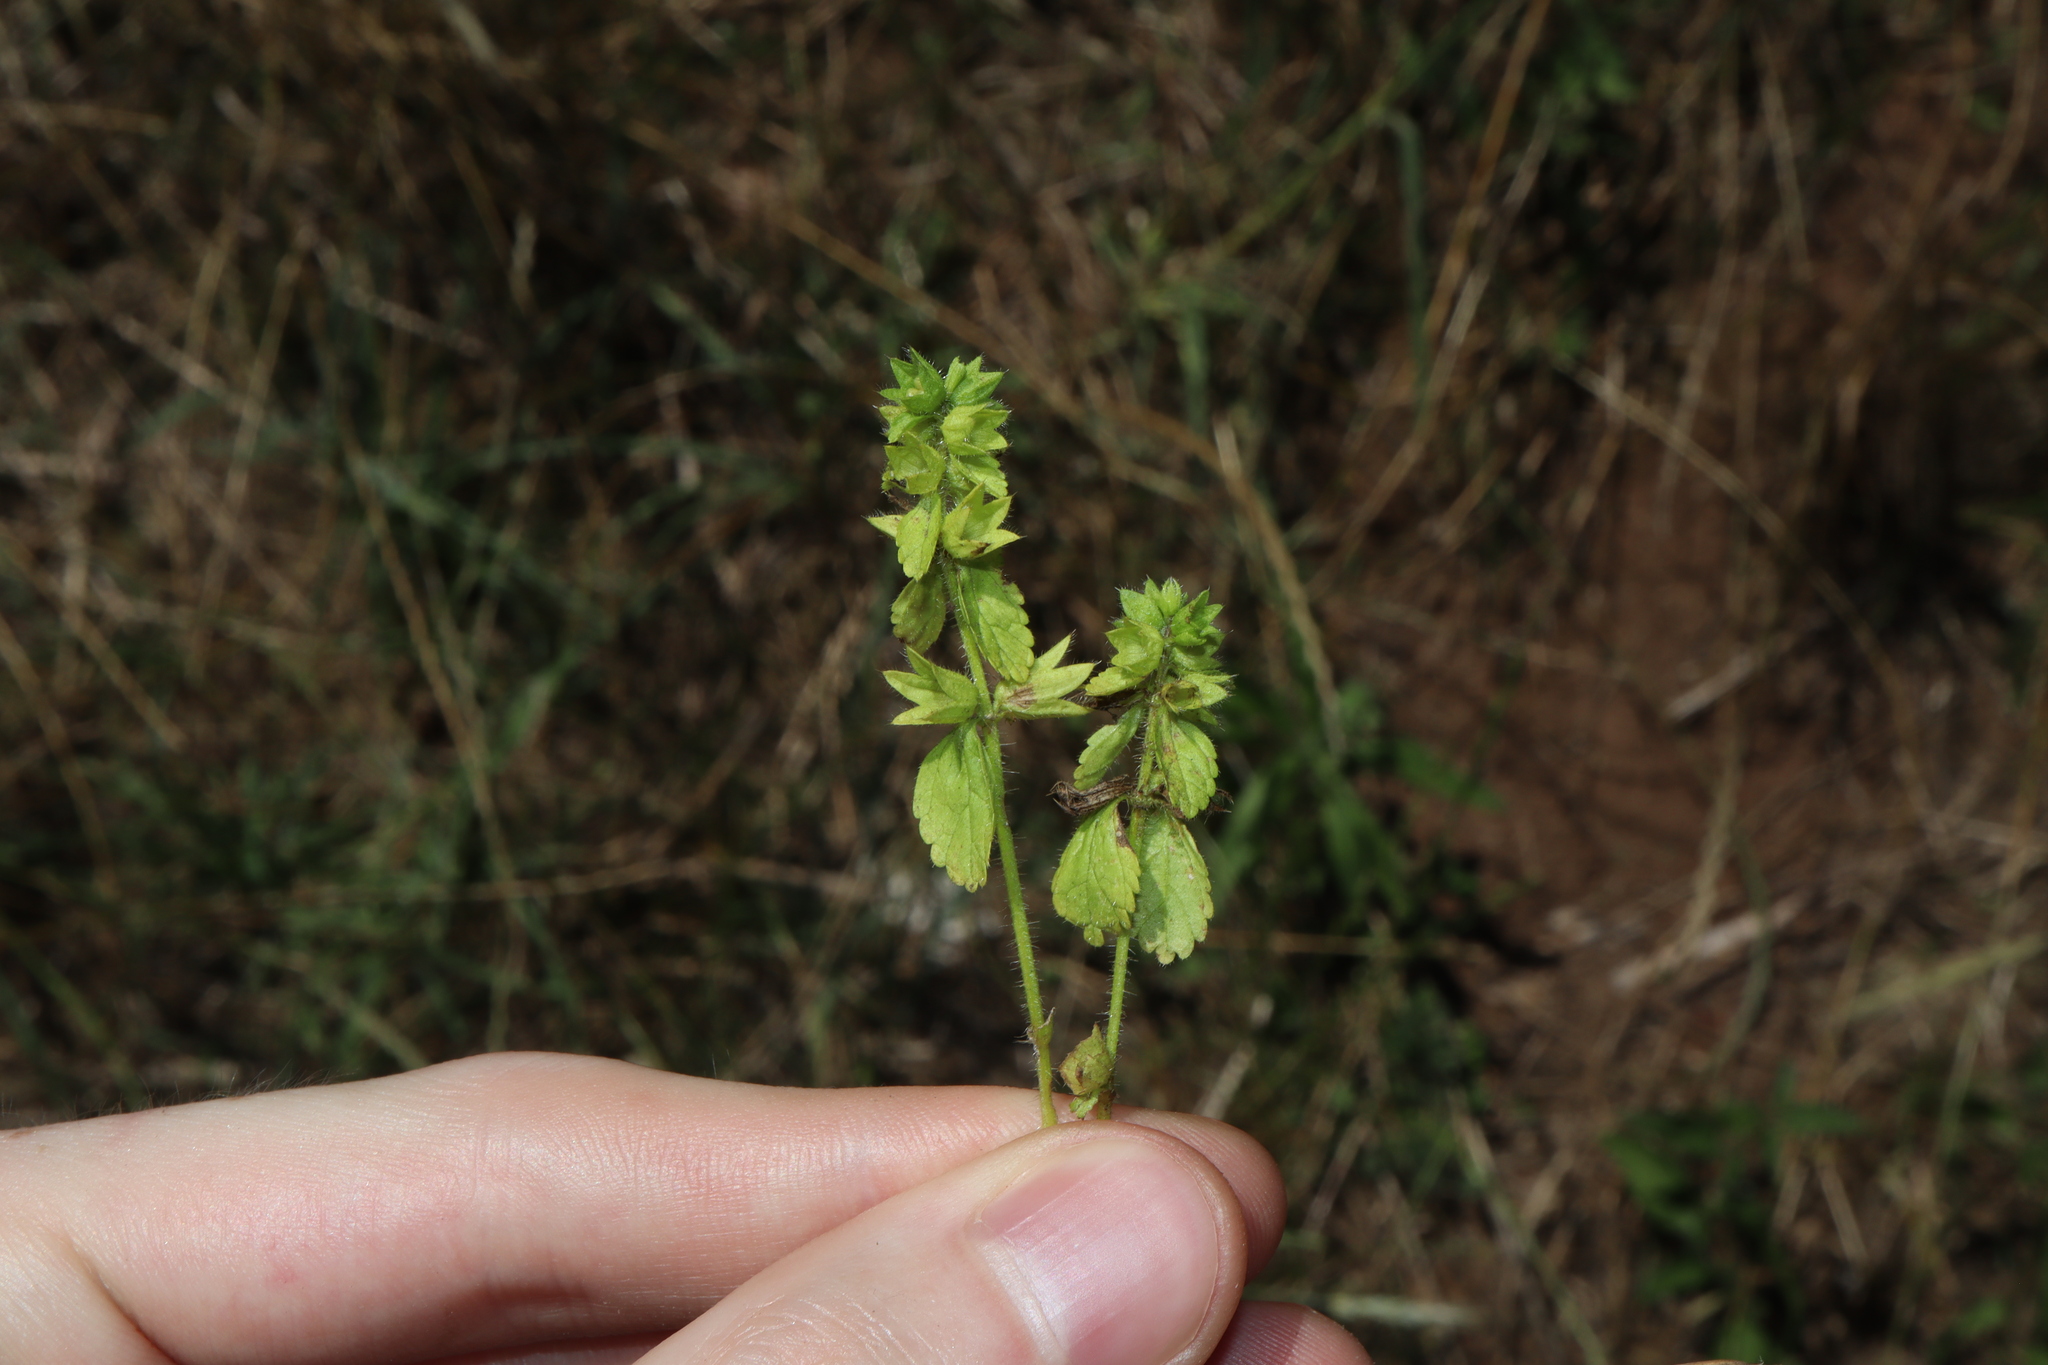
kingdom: Plantae
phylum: Tracheophyta
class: Magnoliopsida
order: Lamiales
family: Lamiaceae
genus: Stachys
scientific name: Stachys arvensis
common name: Field woundwort
